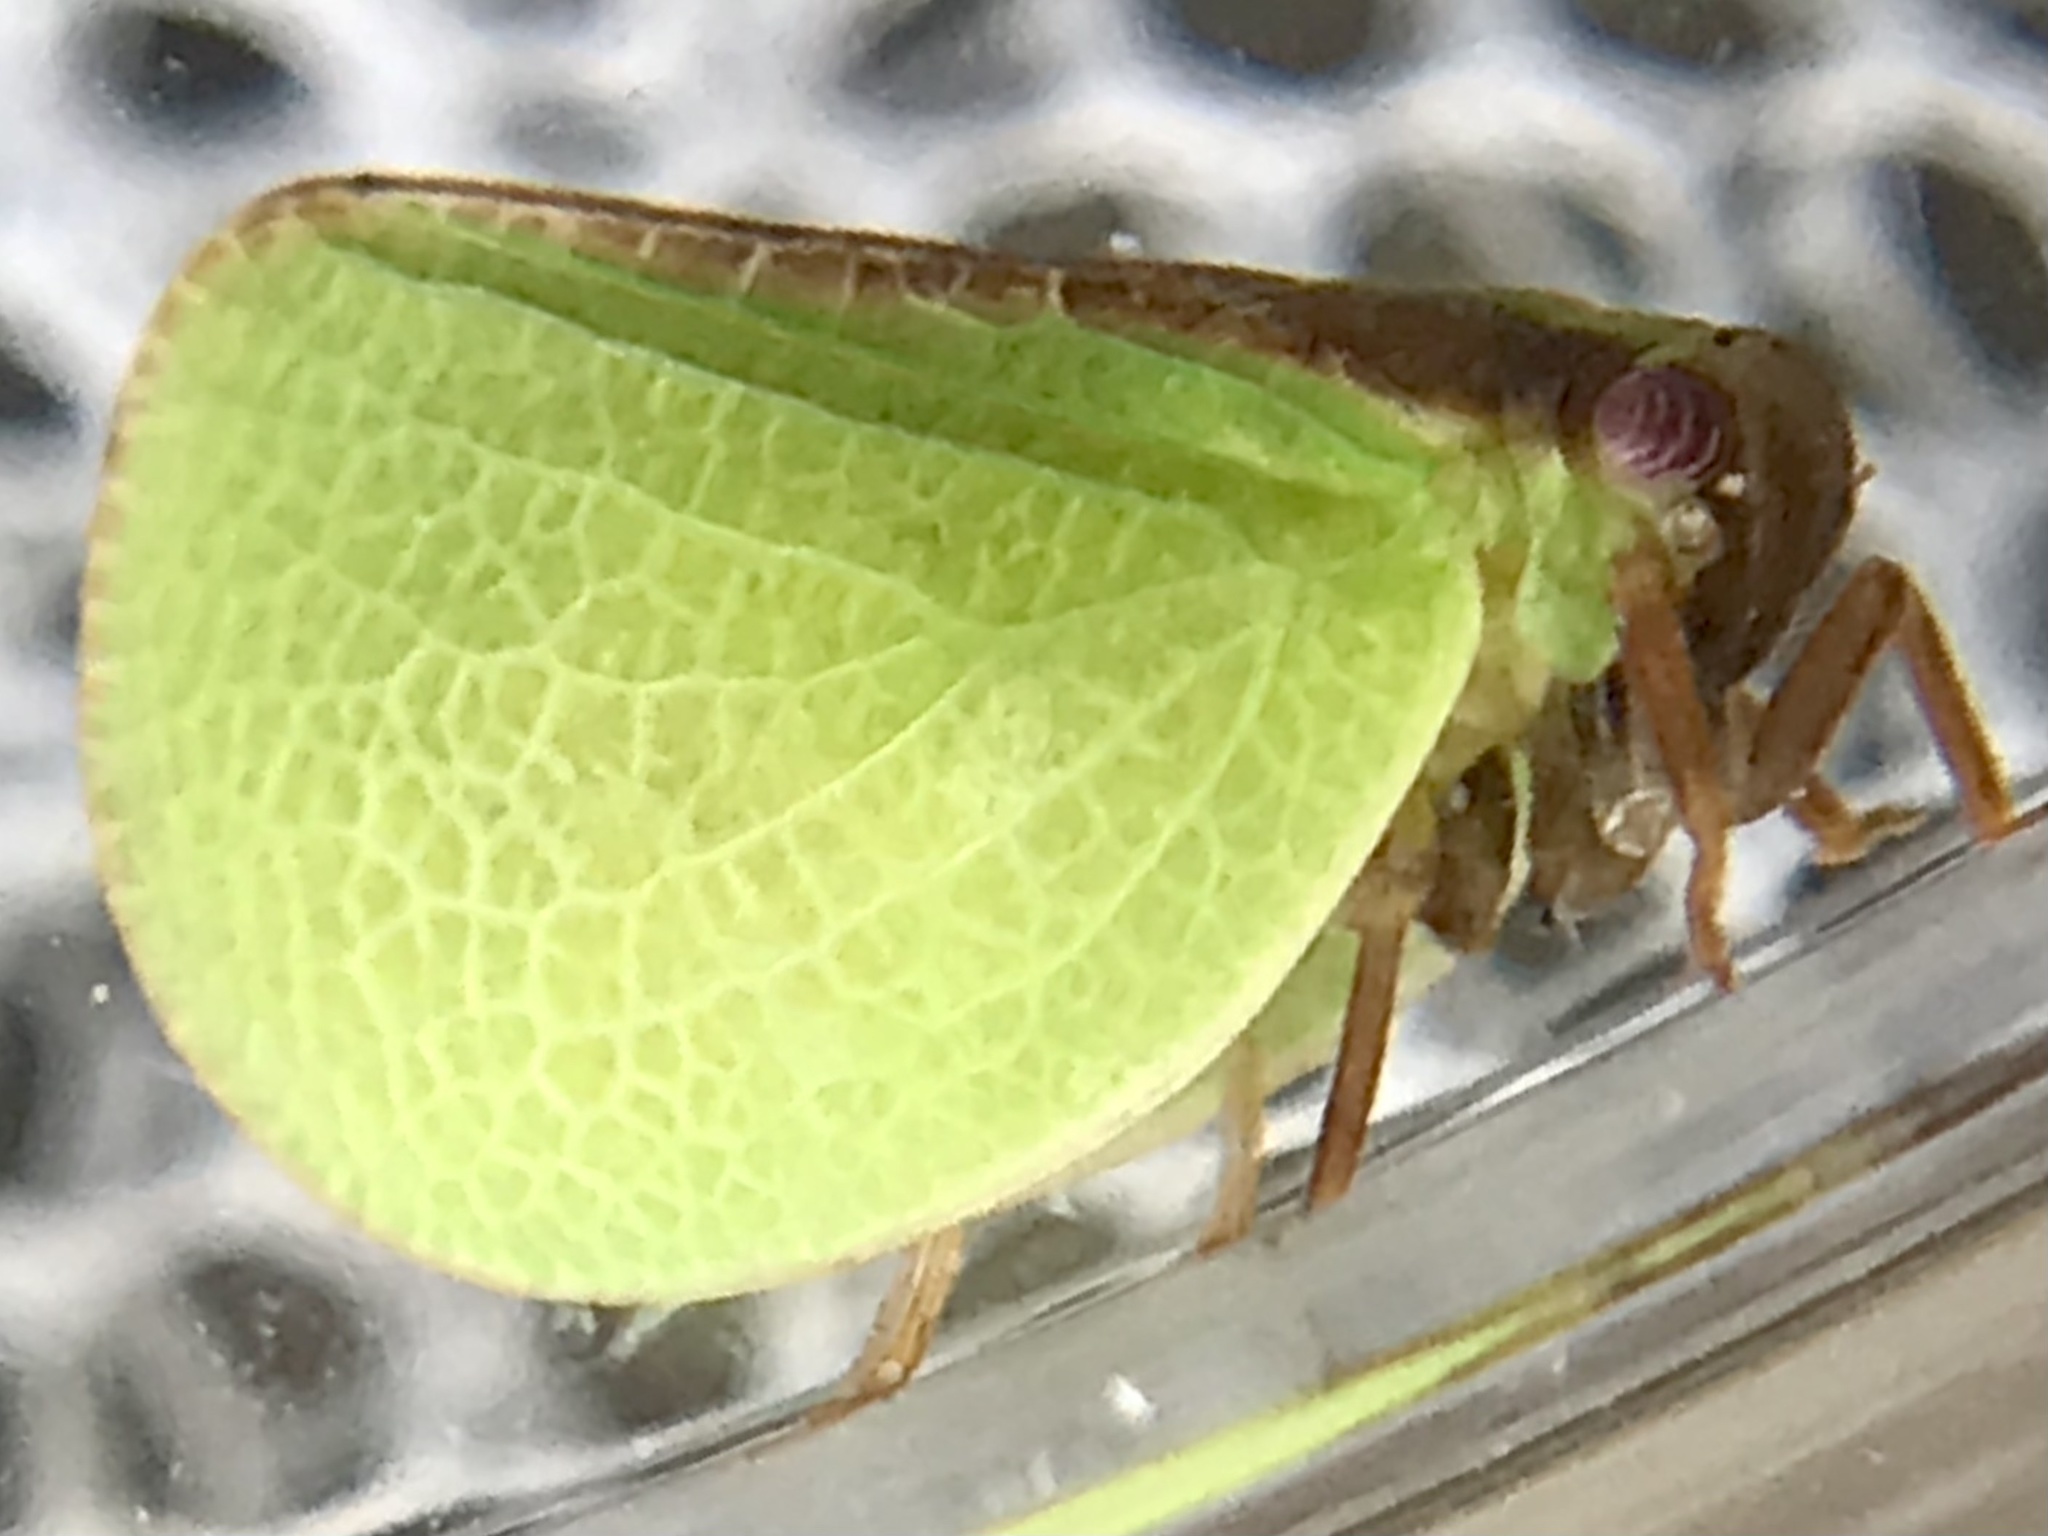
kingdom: Animalia
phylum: Arthropoda
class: Insecta
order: Hemiptera
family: Acanaloniidae
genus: Acanalonia
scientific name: Acanalonia bivittata
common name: Two-striped planthopper
